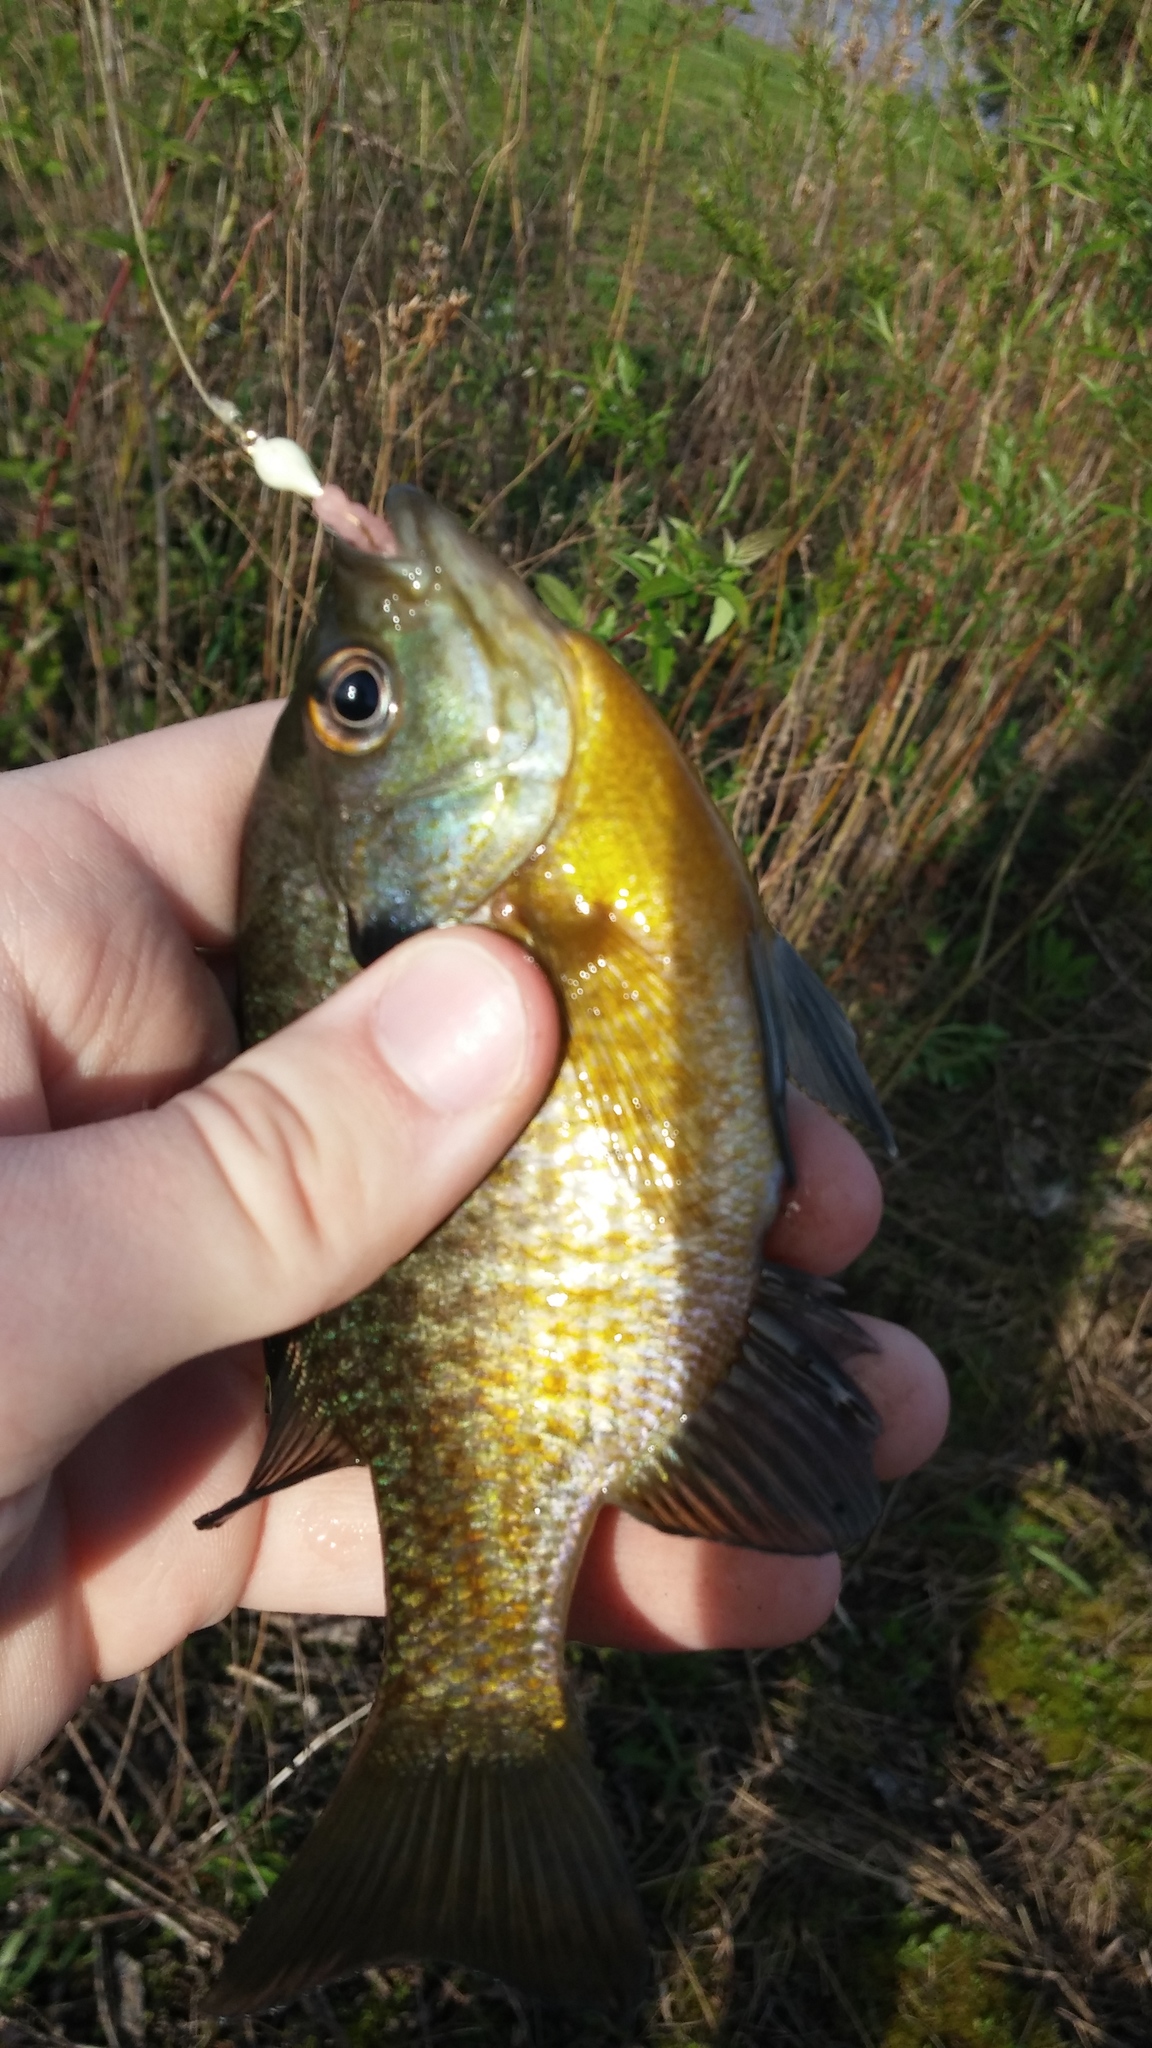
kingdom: Animalia
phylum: Chordata
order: Perciformes
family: Centrarchidae
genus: Lepomis
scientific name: Lepomis macrochirus
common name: Bluegill
